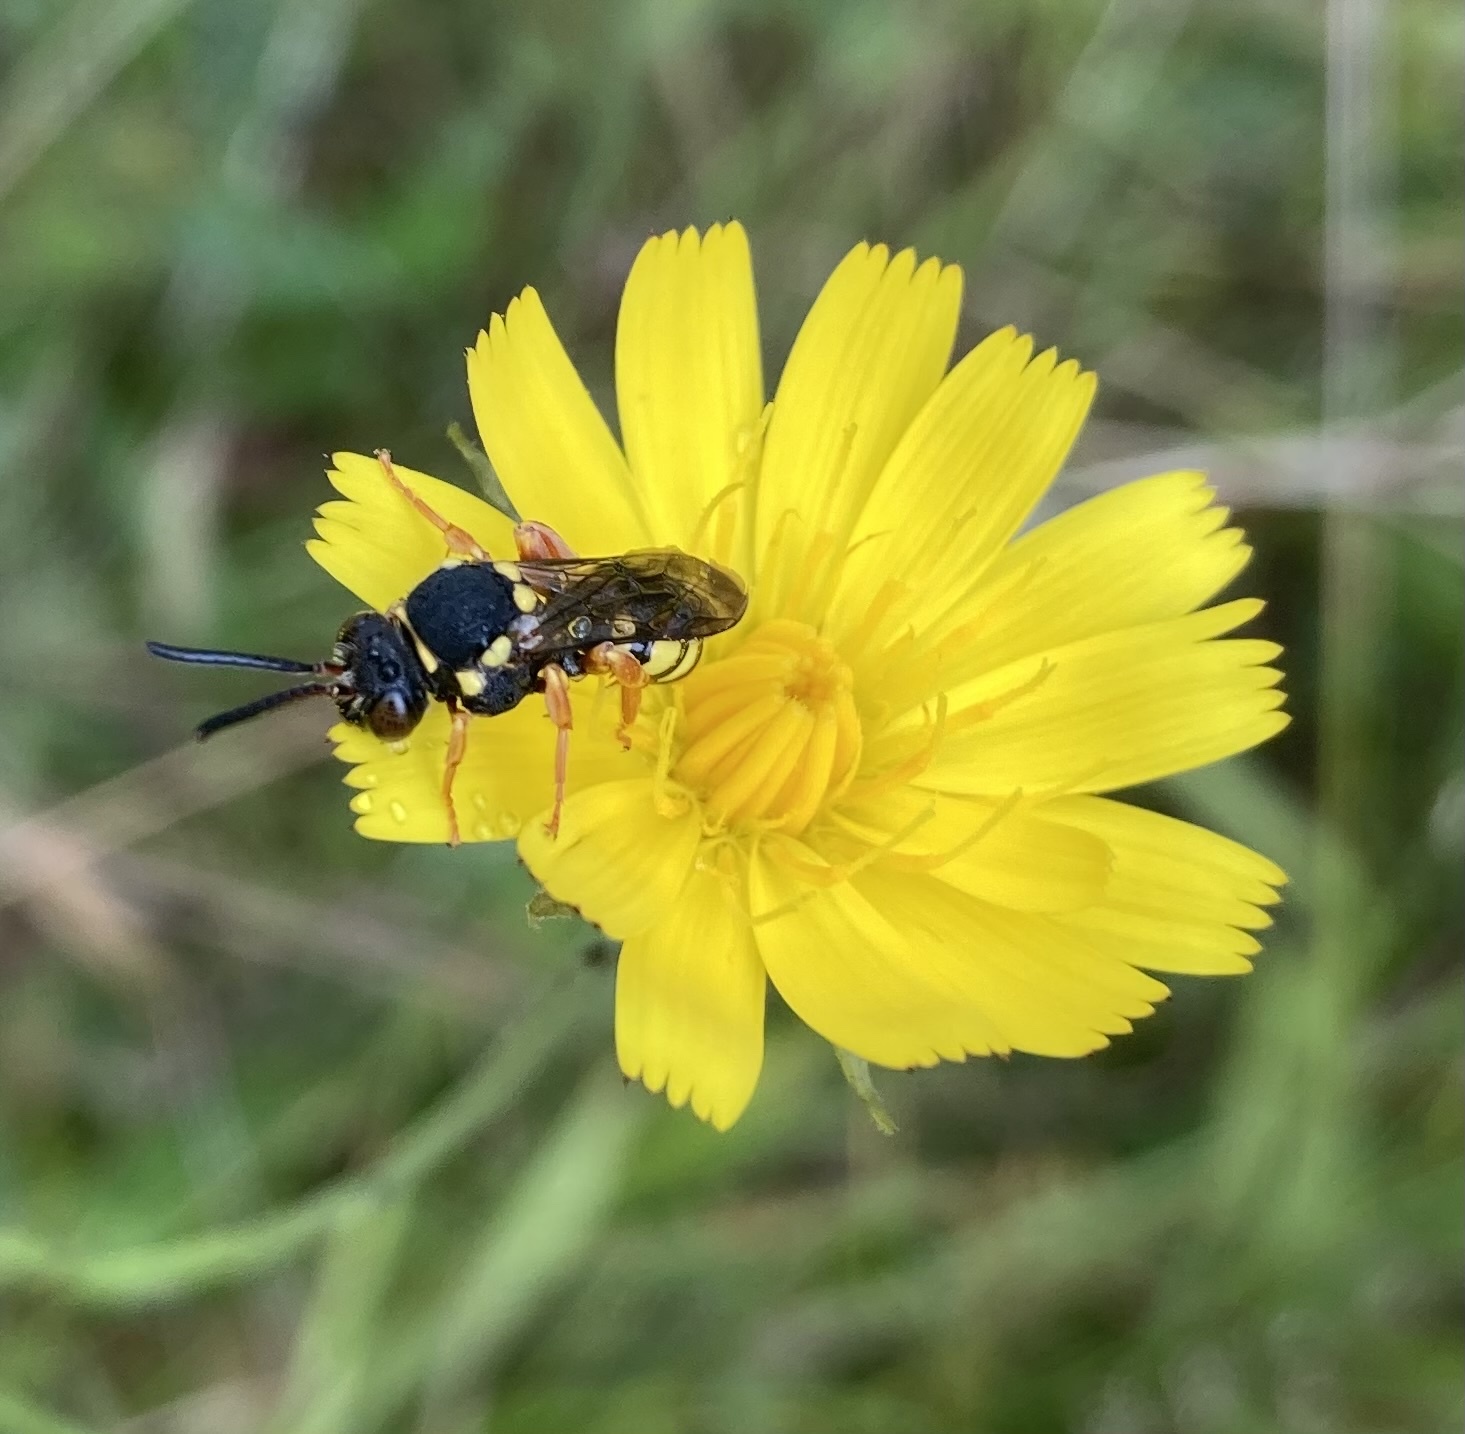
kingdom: Animalia
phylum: Arthropoda
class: Insecta
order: Hymenoptera
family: Apidae
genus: Nomada
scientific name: Nomada flavopicta
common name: Blunthorn nomad bee
